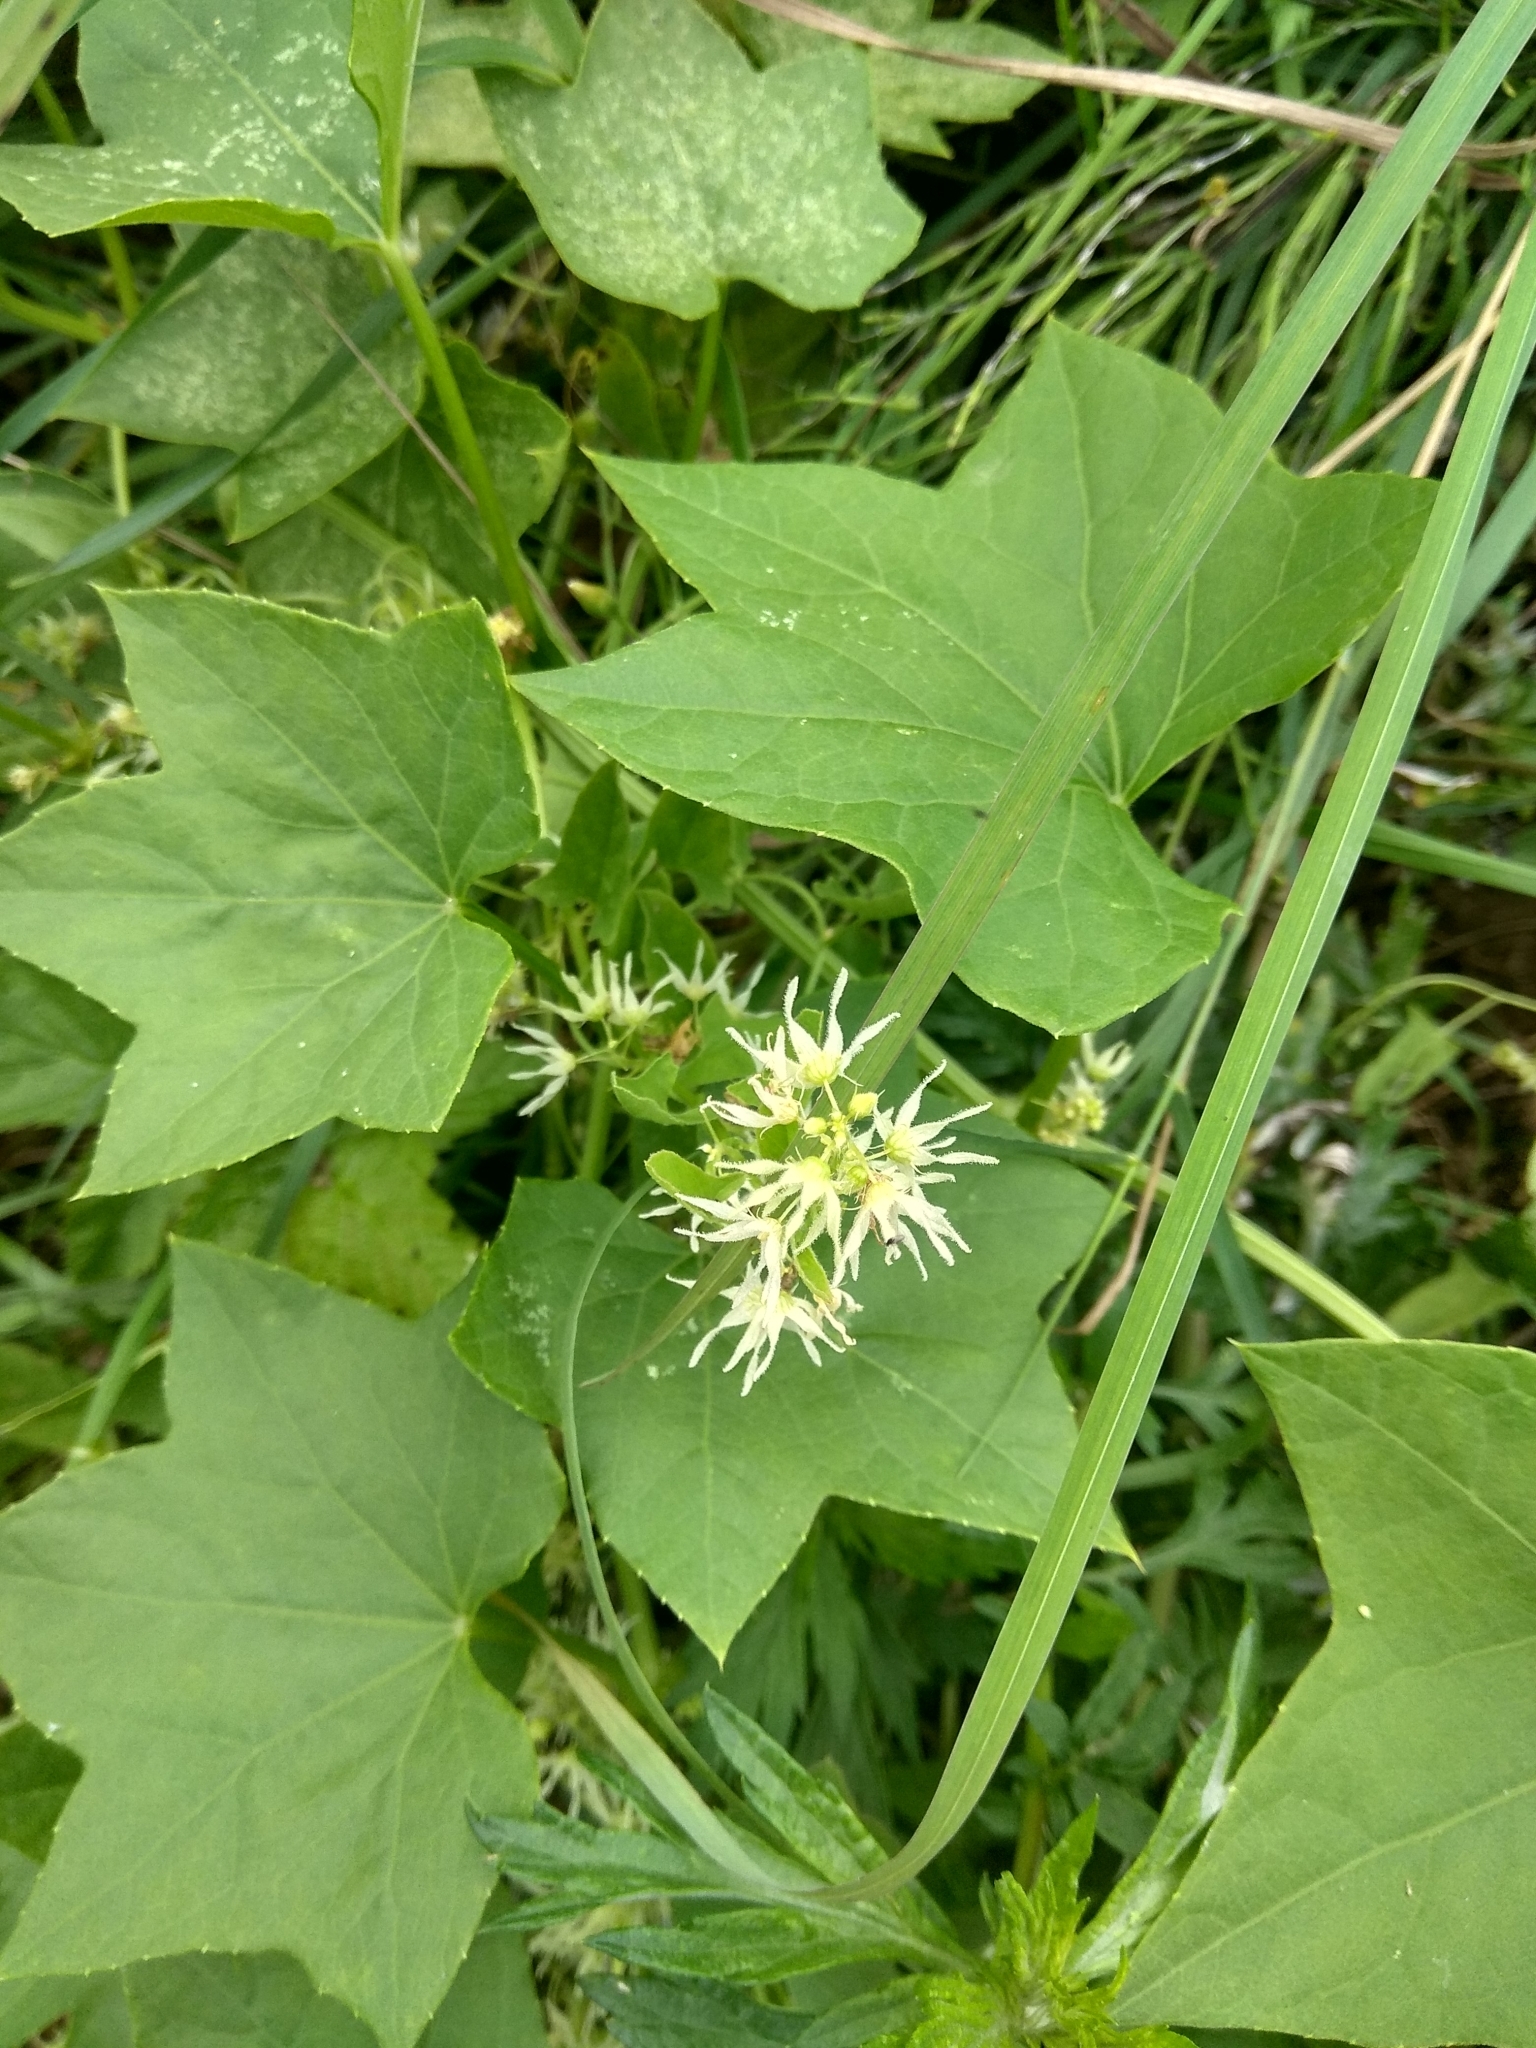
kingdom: Plantae
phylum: Tracheophyta
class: Magnoliopsida
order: Cucurbitales
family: Cucurbitaceae
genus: Echinocystis
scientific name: Echinocystis lobata
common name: Wild cucumber
